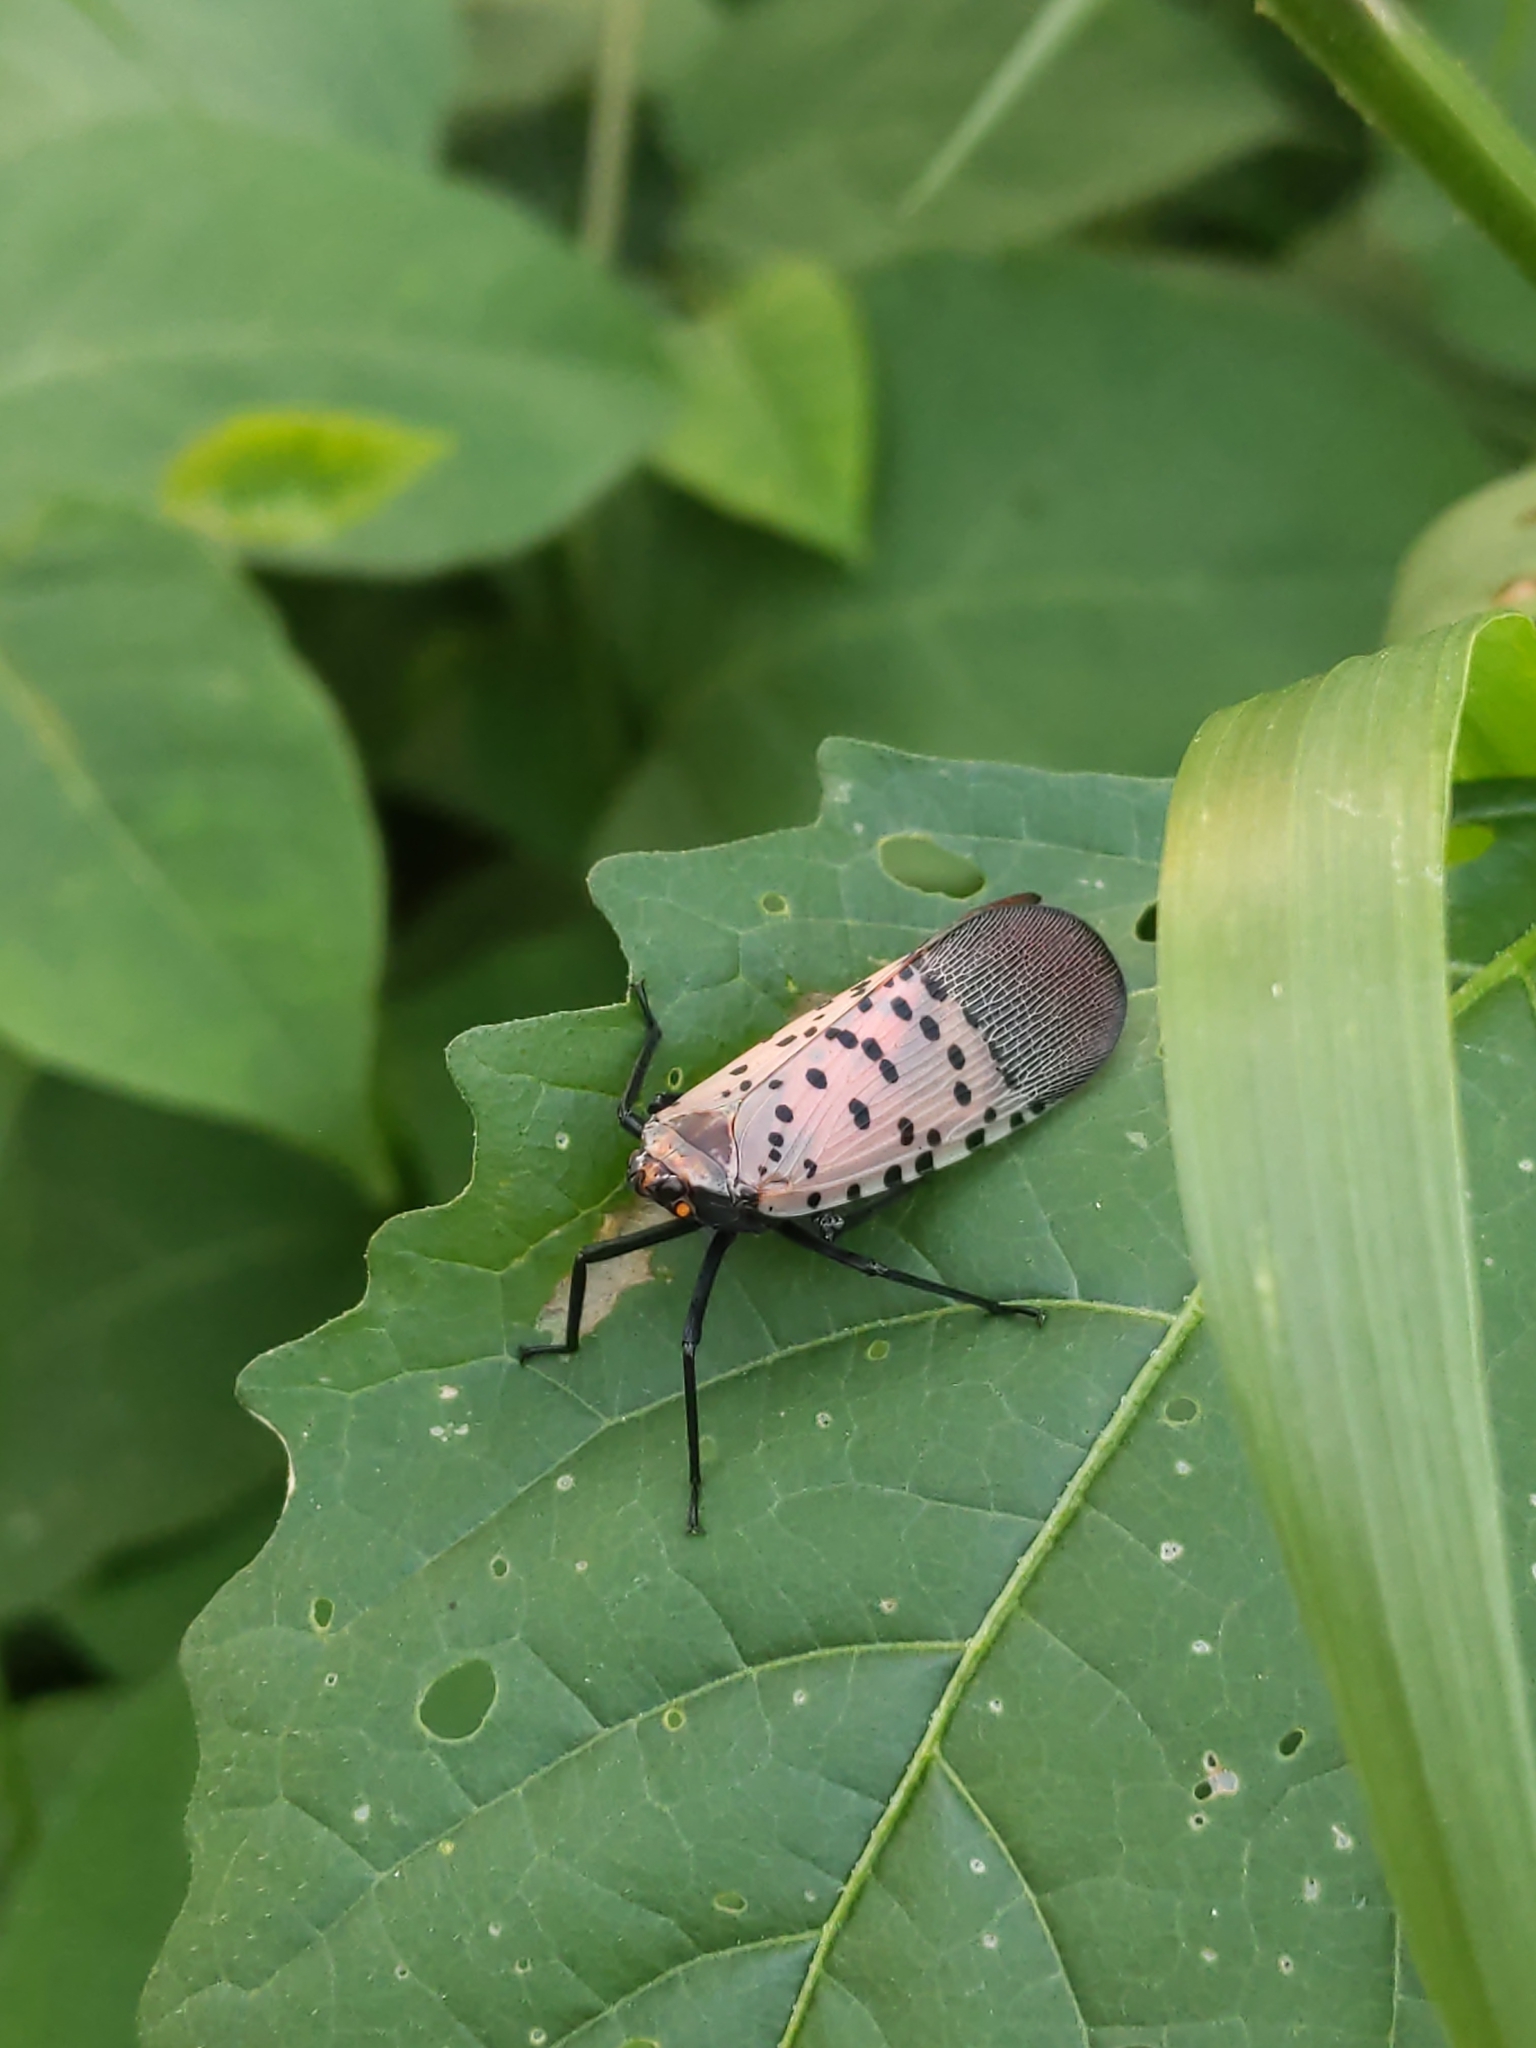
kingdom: Animalia
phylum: Arthropoda
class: Insecta
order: Hemiptera
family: Fulgoridae
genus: Lycorma
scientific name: Lycorma delicatula
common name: Spotted lanternfly
